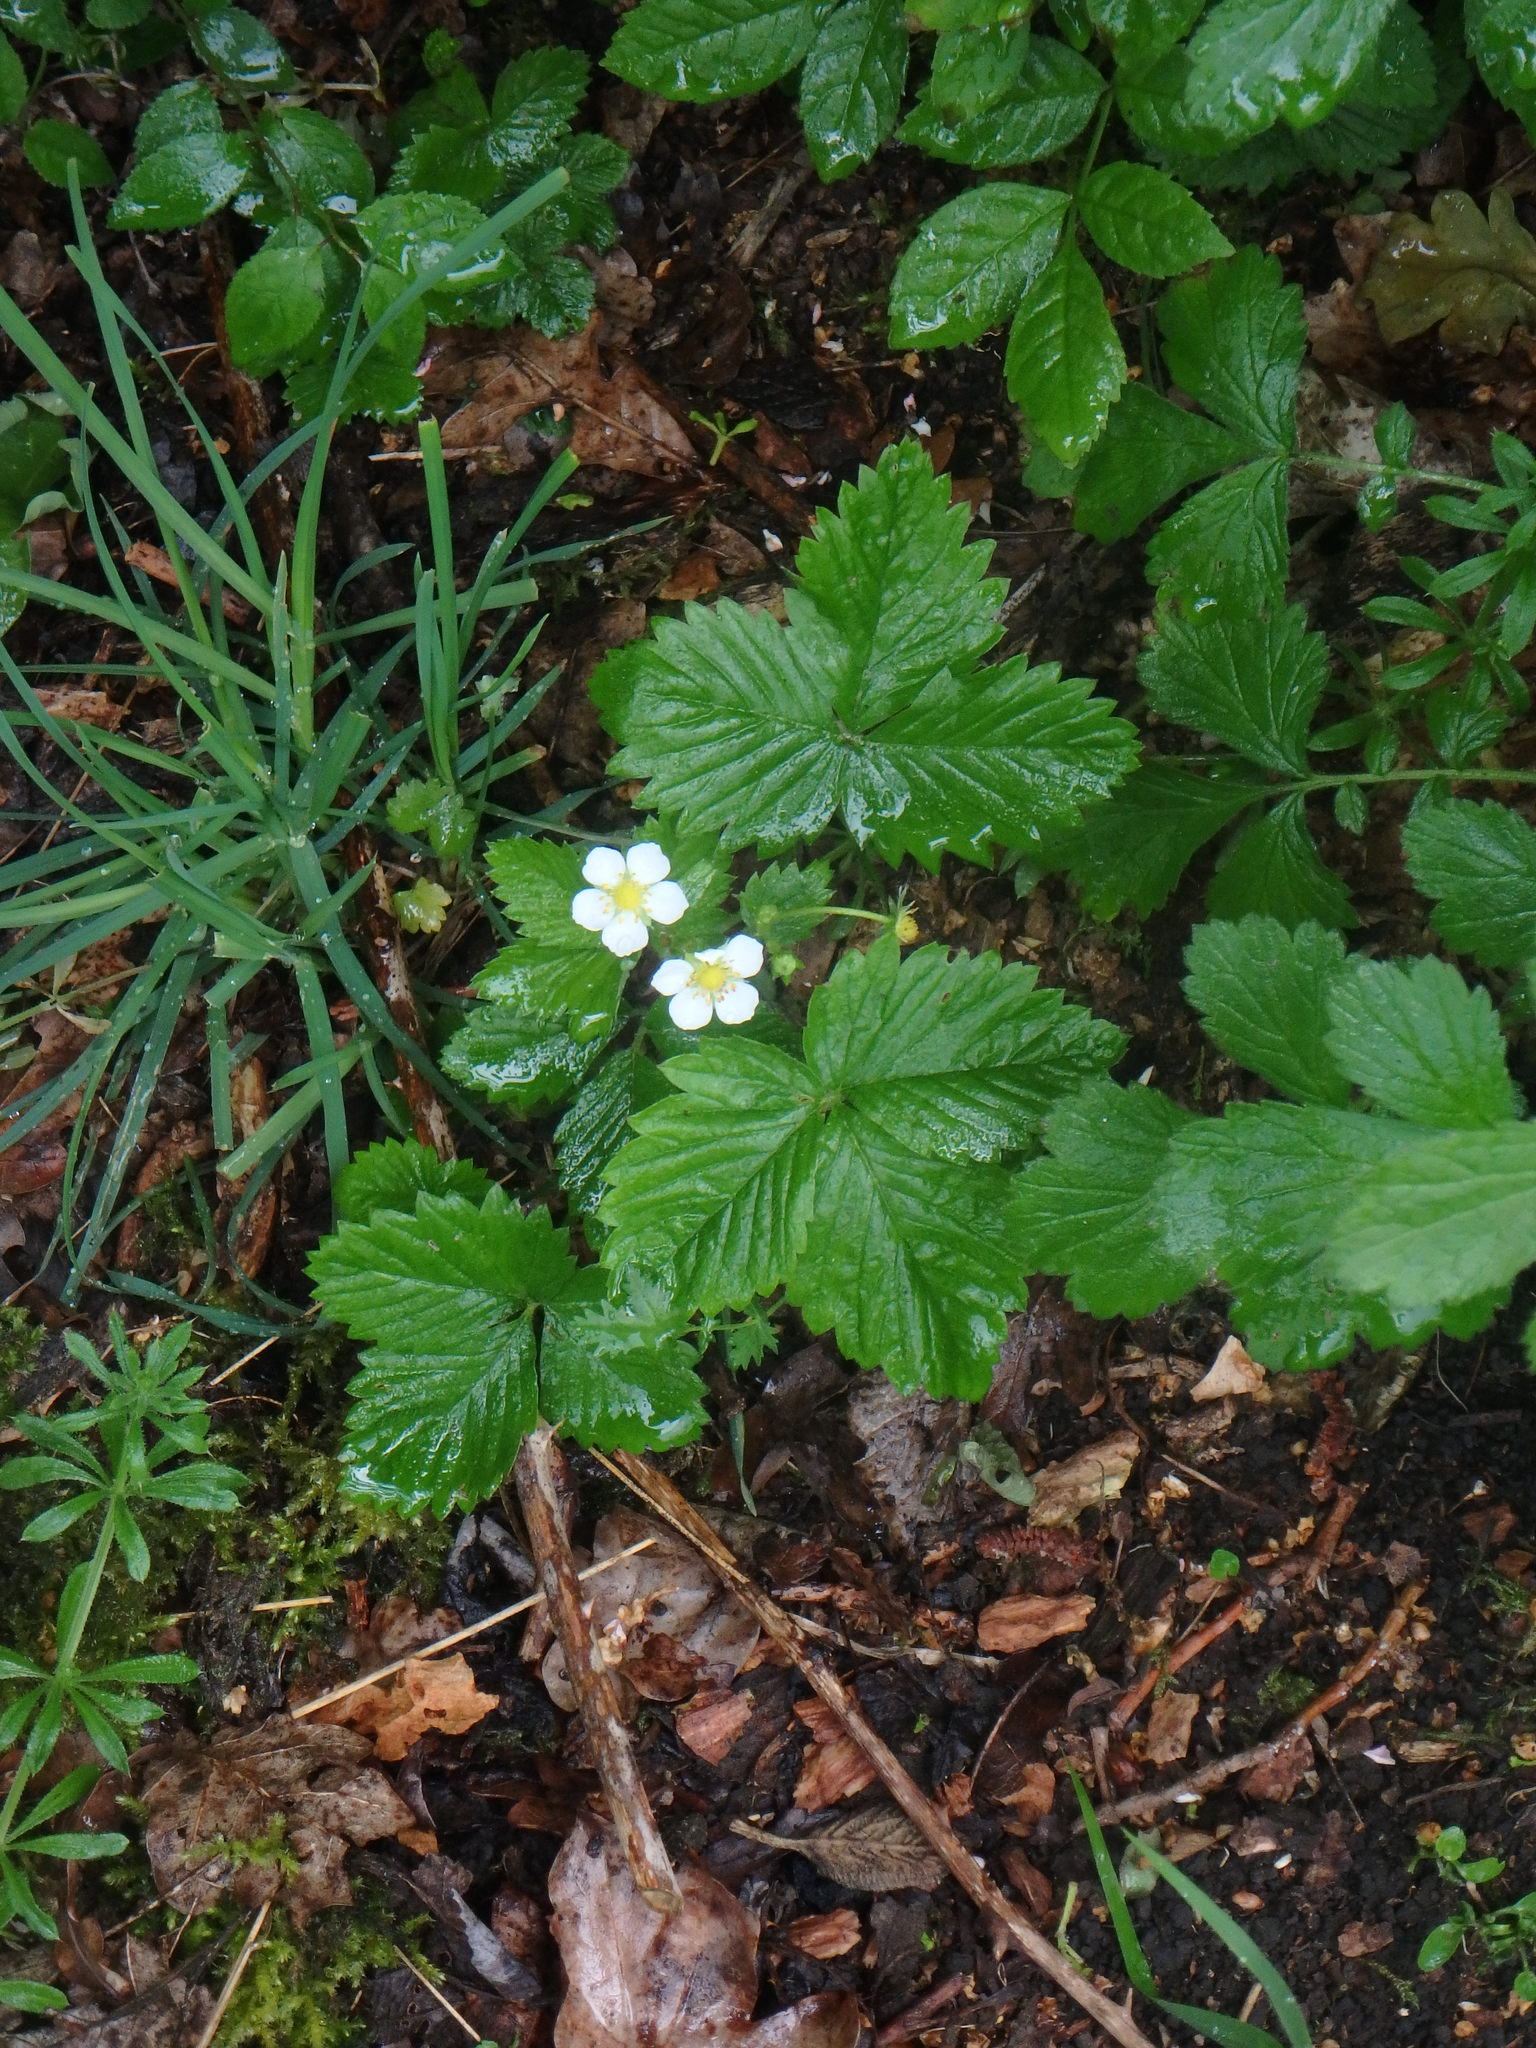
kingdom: Plantae
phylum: Tracheophyta
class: Magnoliopsida
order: Rosales
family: Rosaceae
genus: Fragaria
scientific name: Fragaria vesca
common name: Wild strawberry
